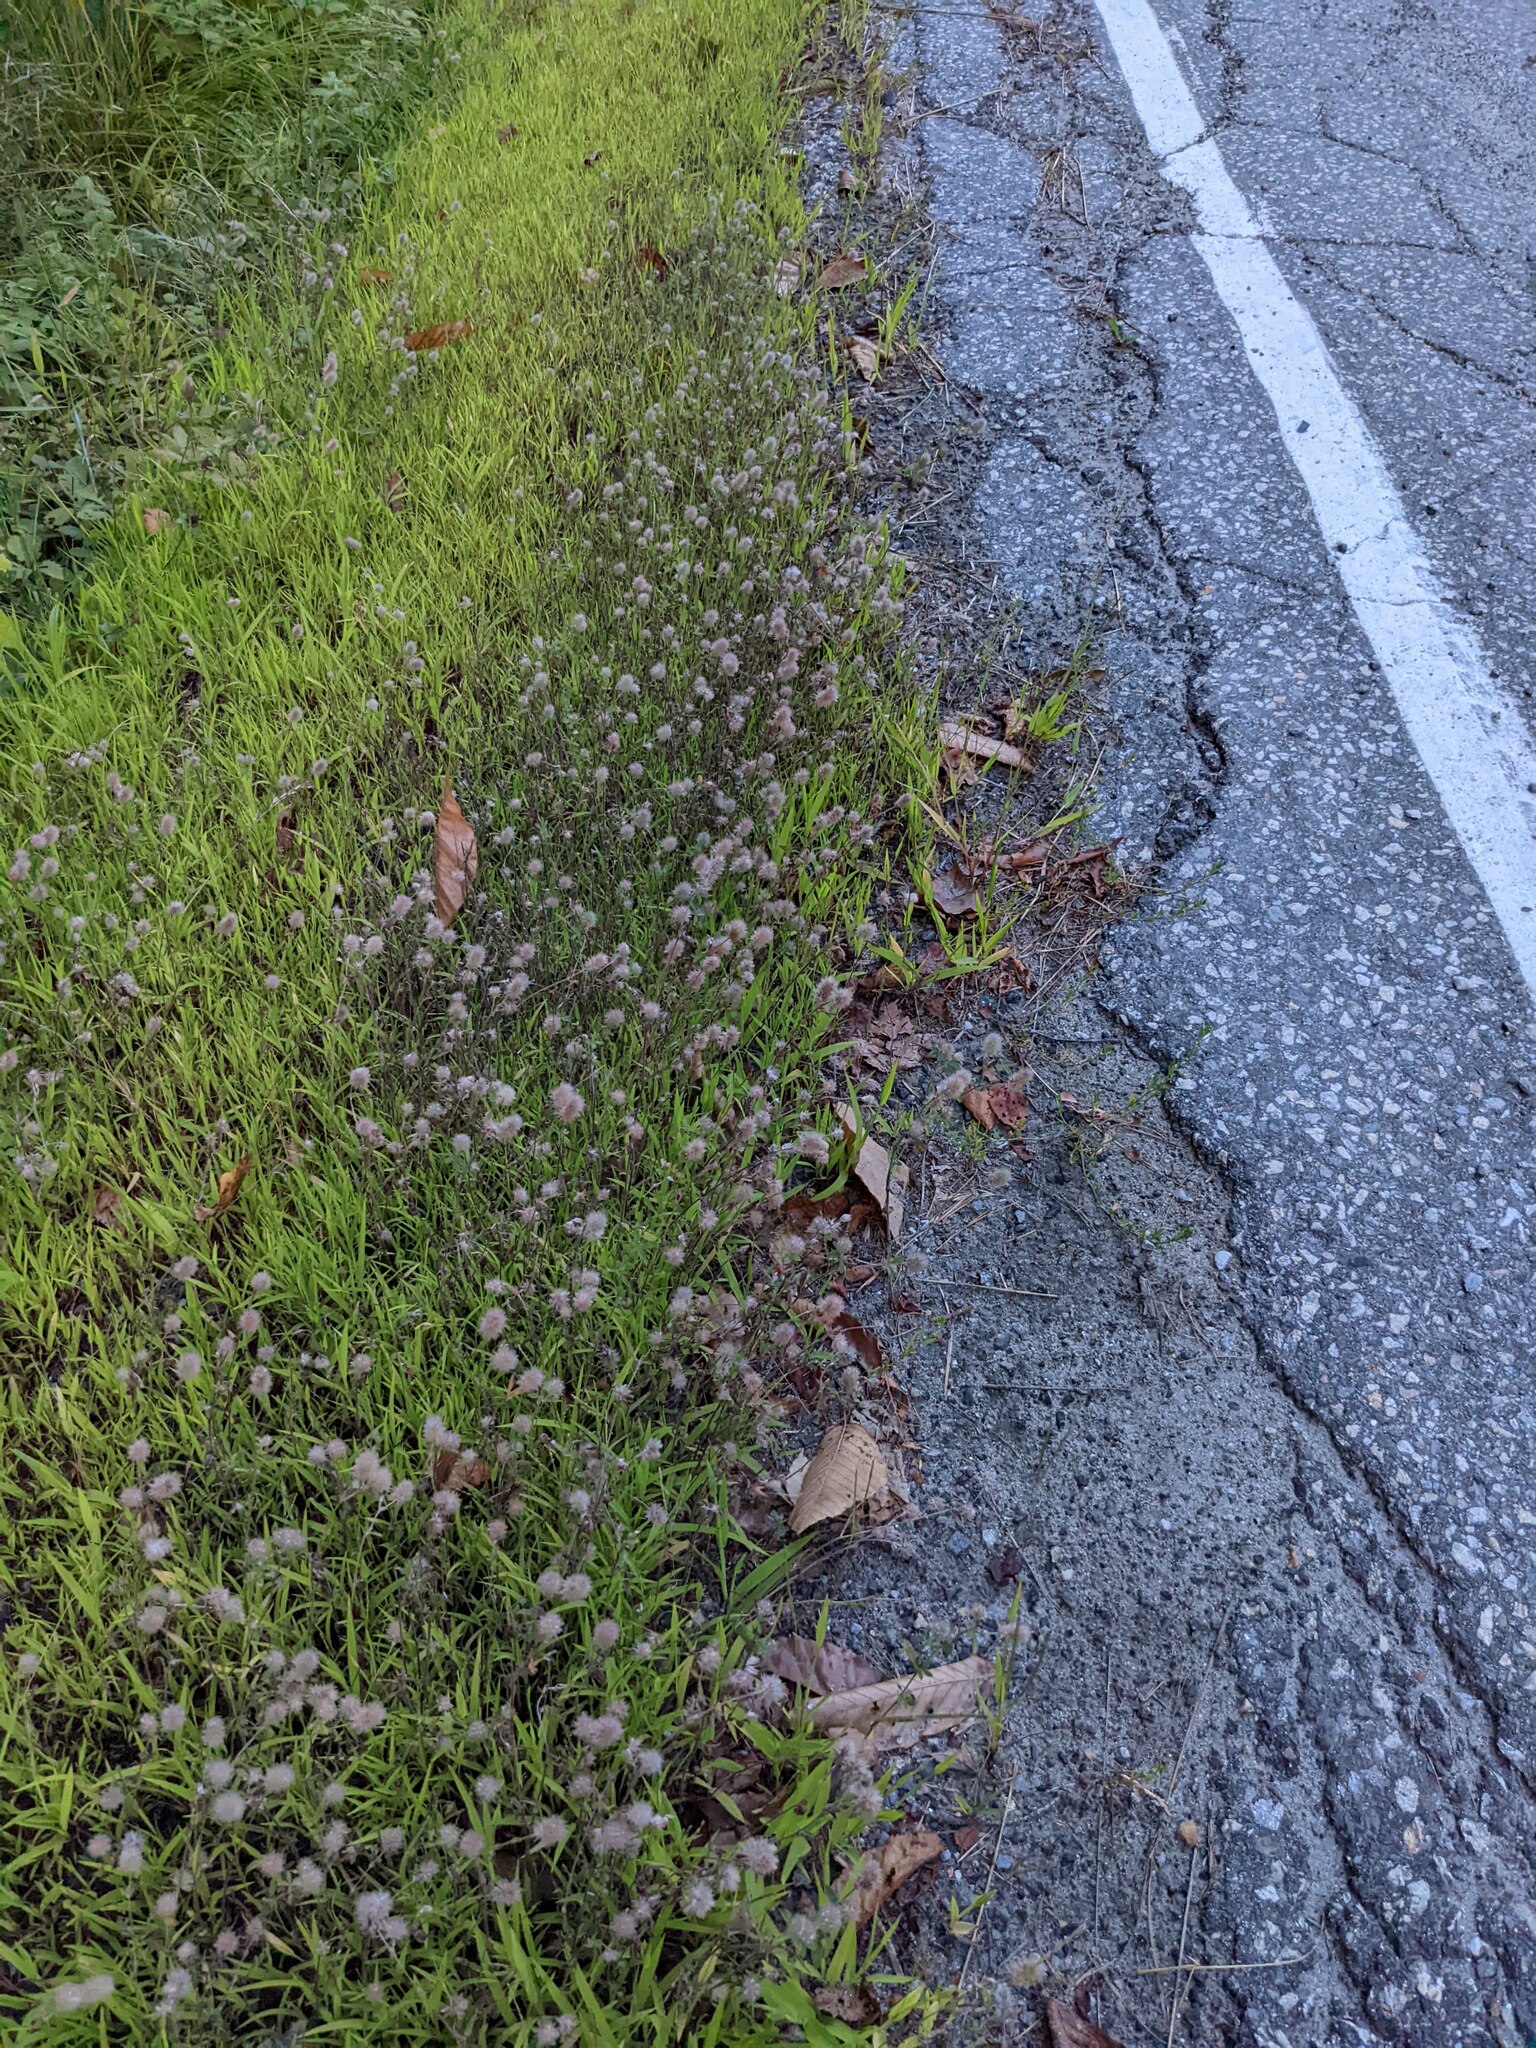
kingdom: Plantae
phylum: Tracheophyta
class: Magnoliopsida
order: Fabales
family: Fabaceae
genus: Trifolium
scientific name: Trifolium arvense
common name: Hare's-foot clover
